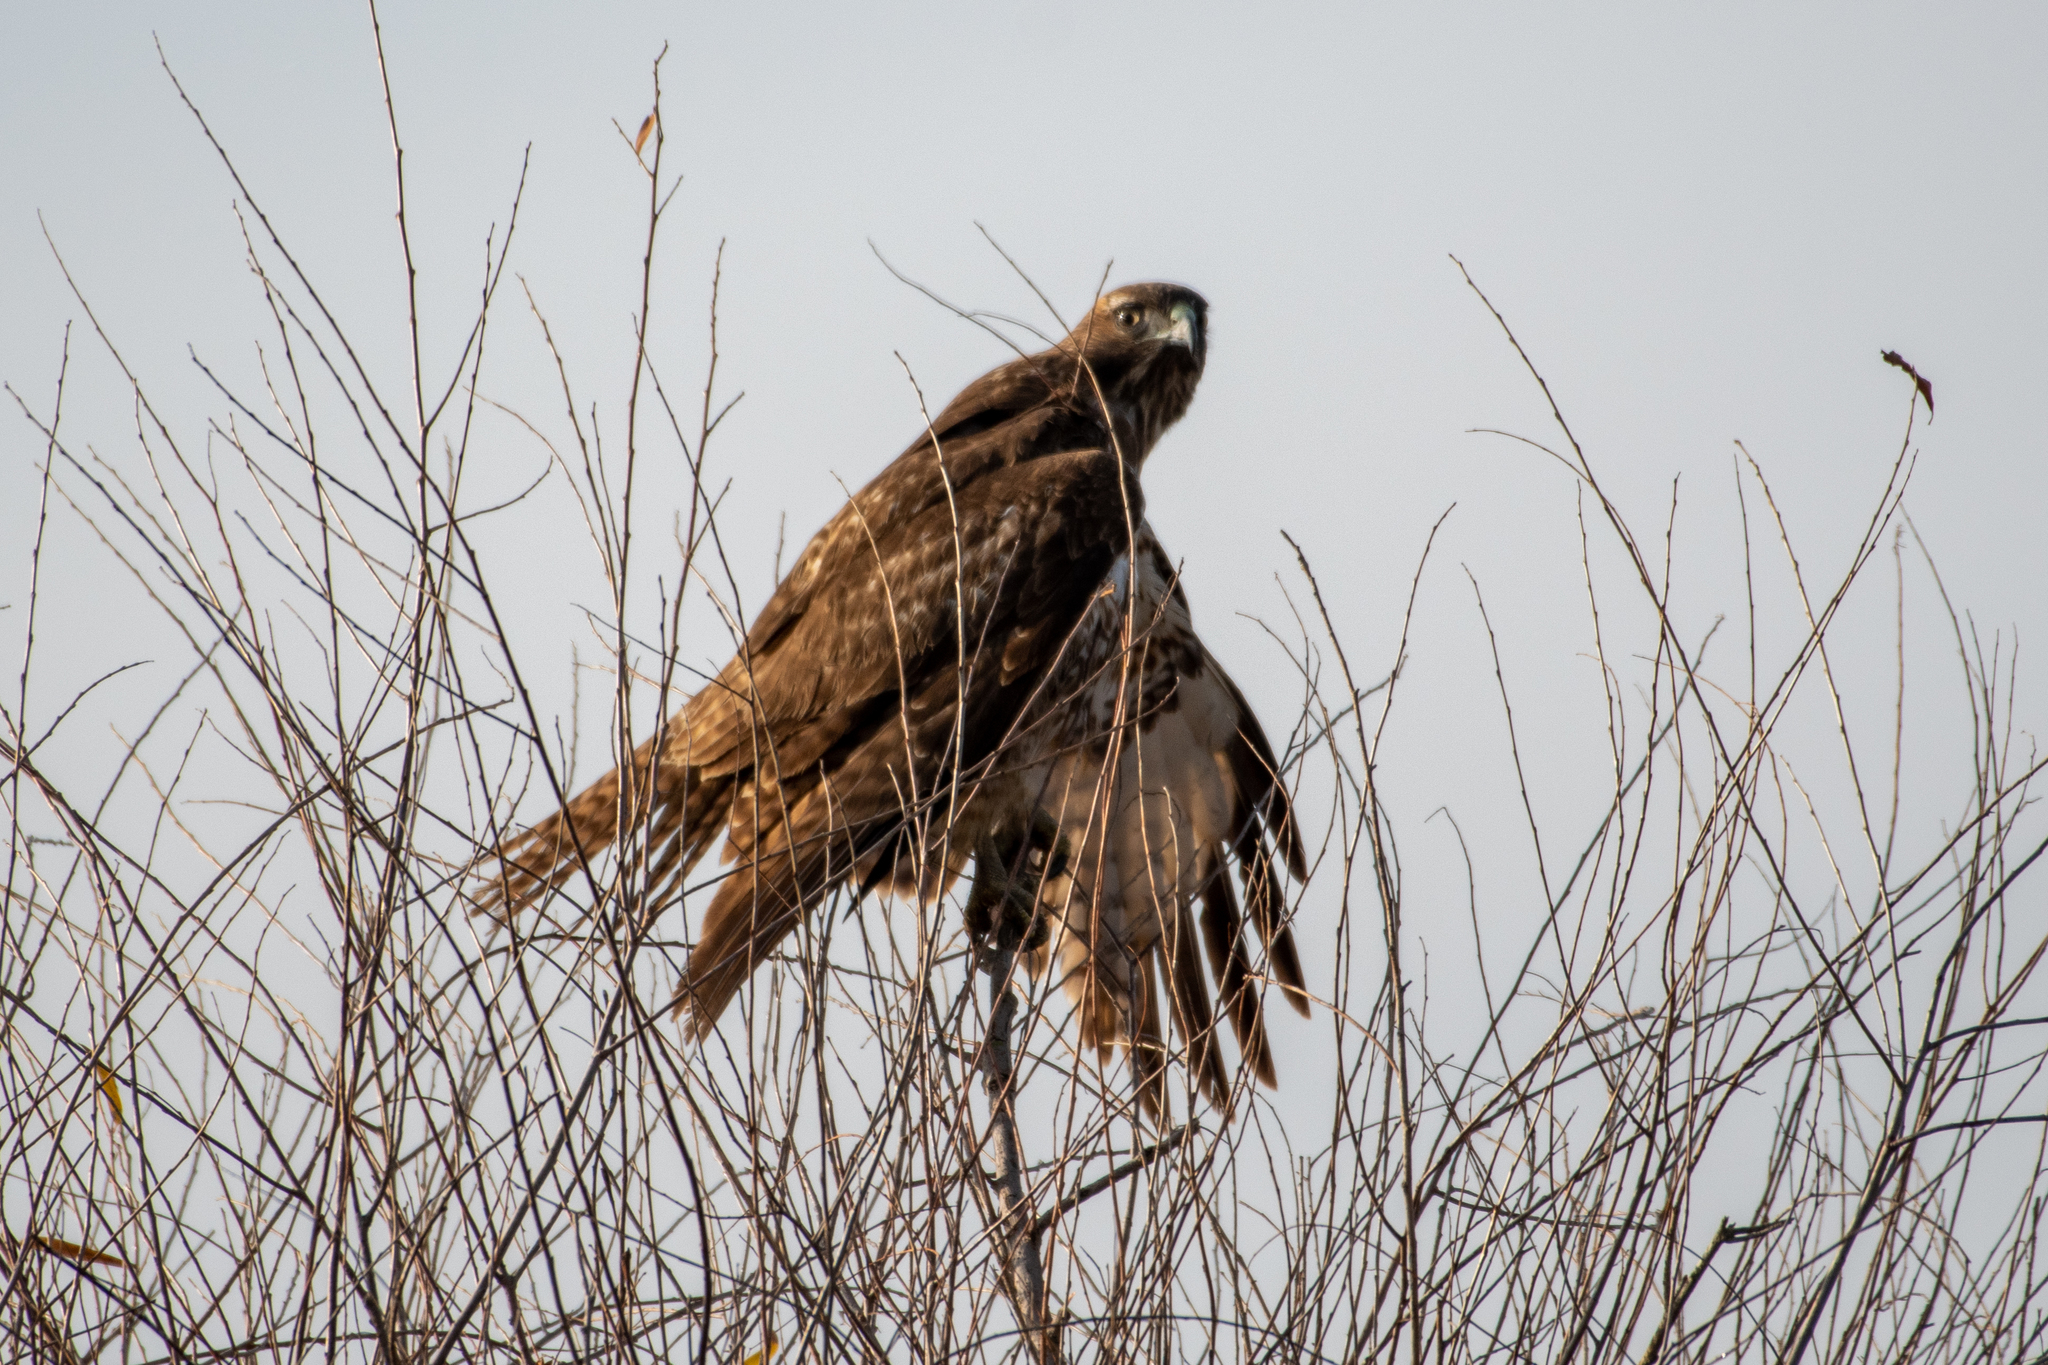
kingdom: Animalia
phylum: Chordata
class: Aves
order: Accipitriformes
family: Accipitridae
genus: Buteo
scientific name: Buteo jamaicensis
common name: Red-tailed hawk
